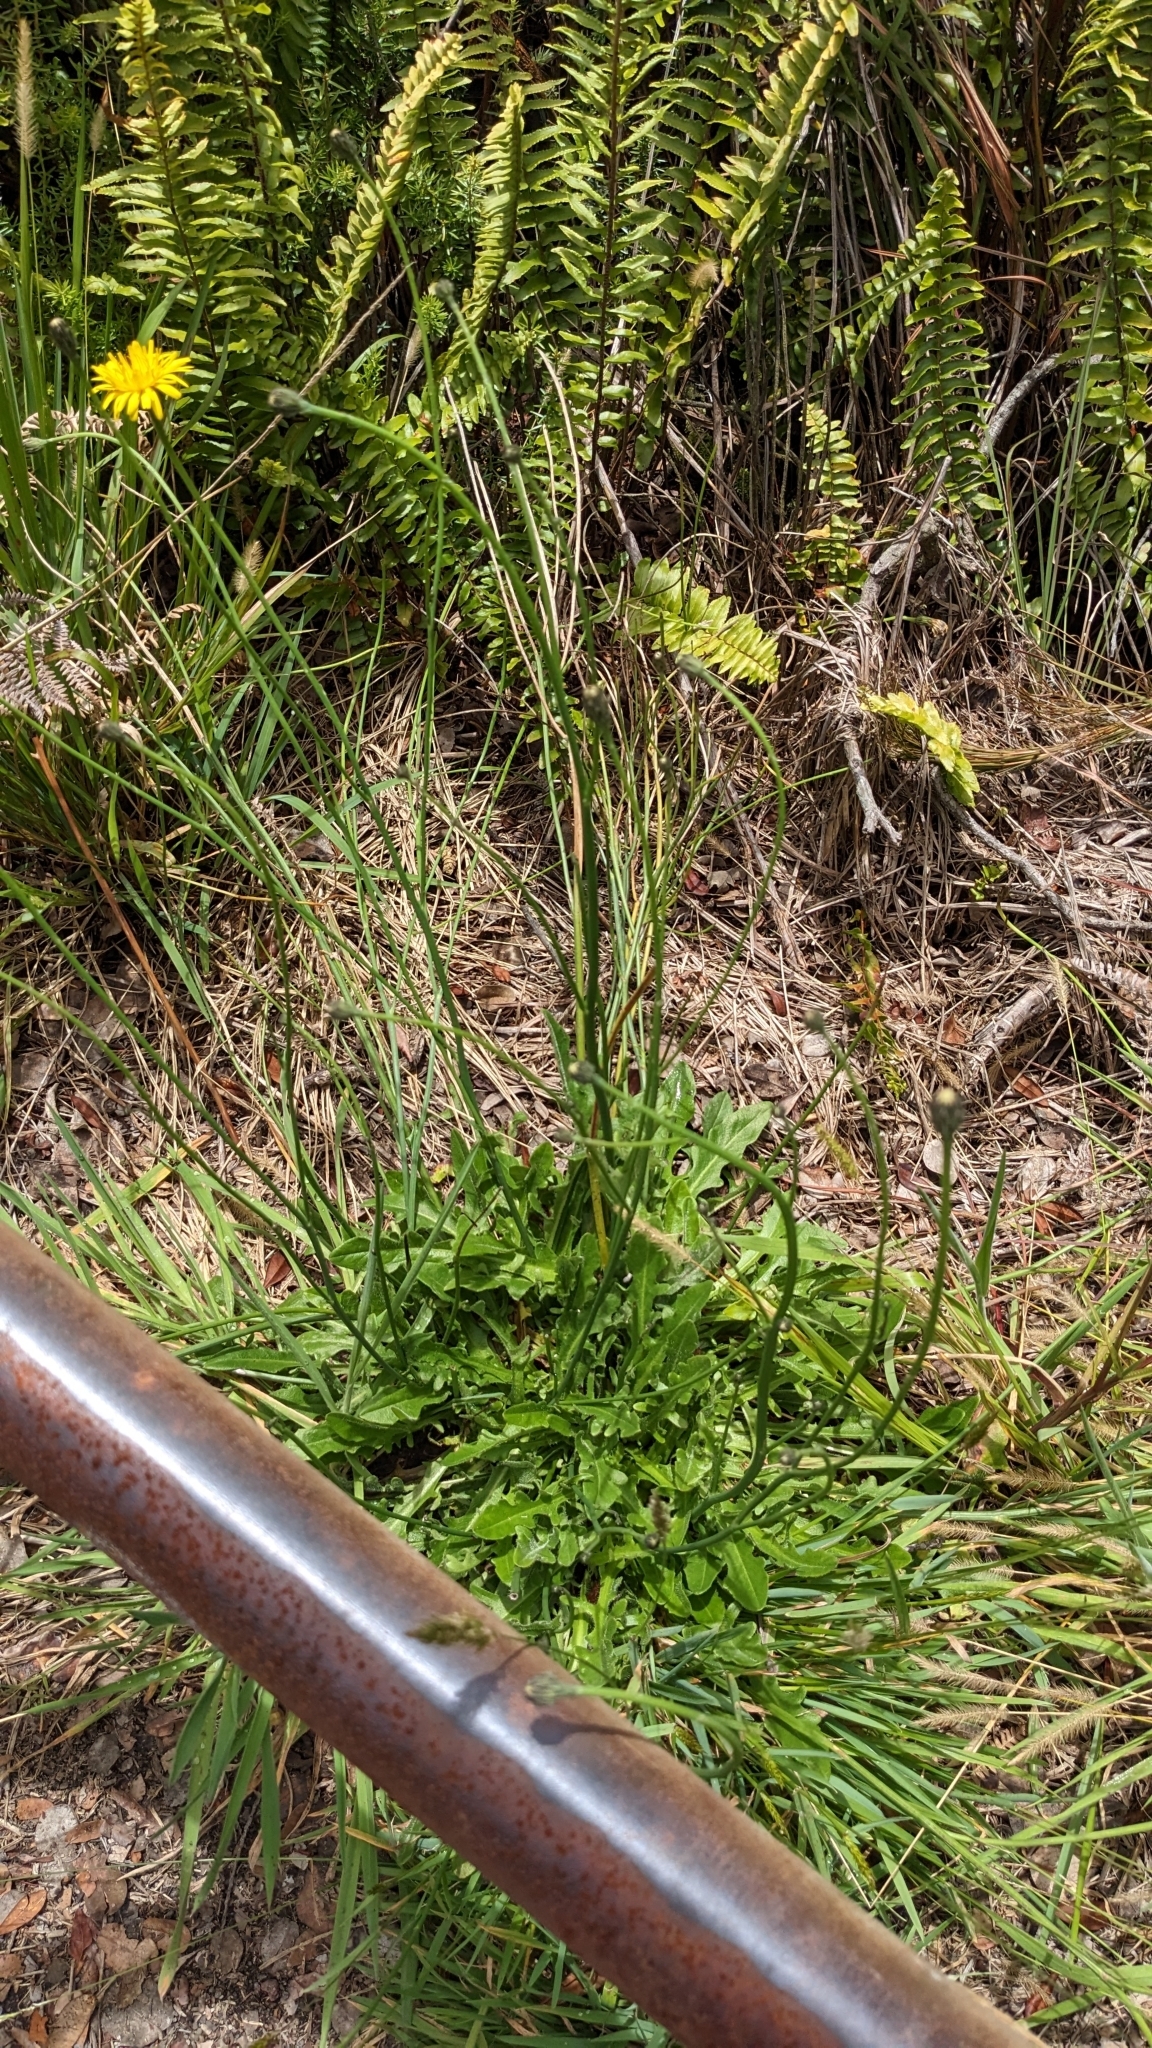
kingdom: Plantae
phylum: Tracheophyta
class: Magnoliopsida
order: Asterales
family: Asteraceae
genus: Hypochaeris
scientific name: Hypochaeris radicata
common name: Flatweed
